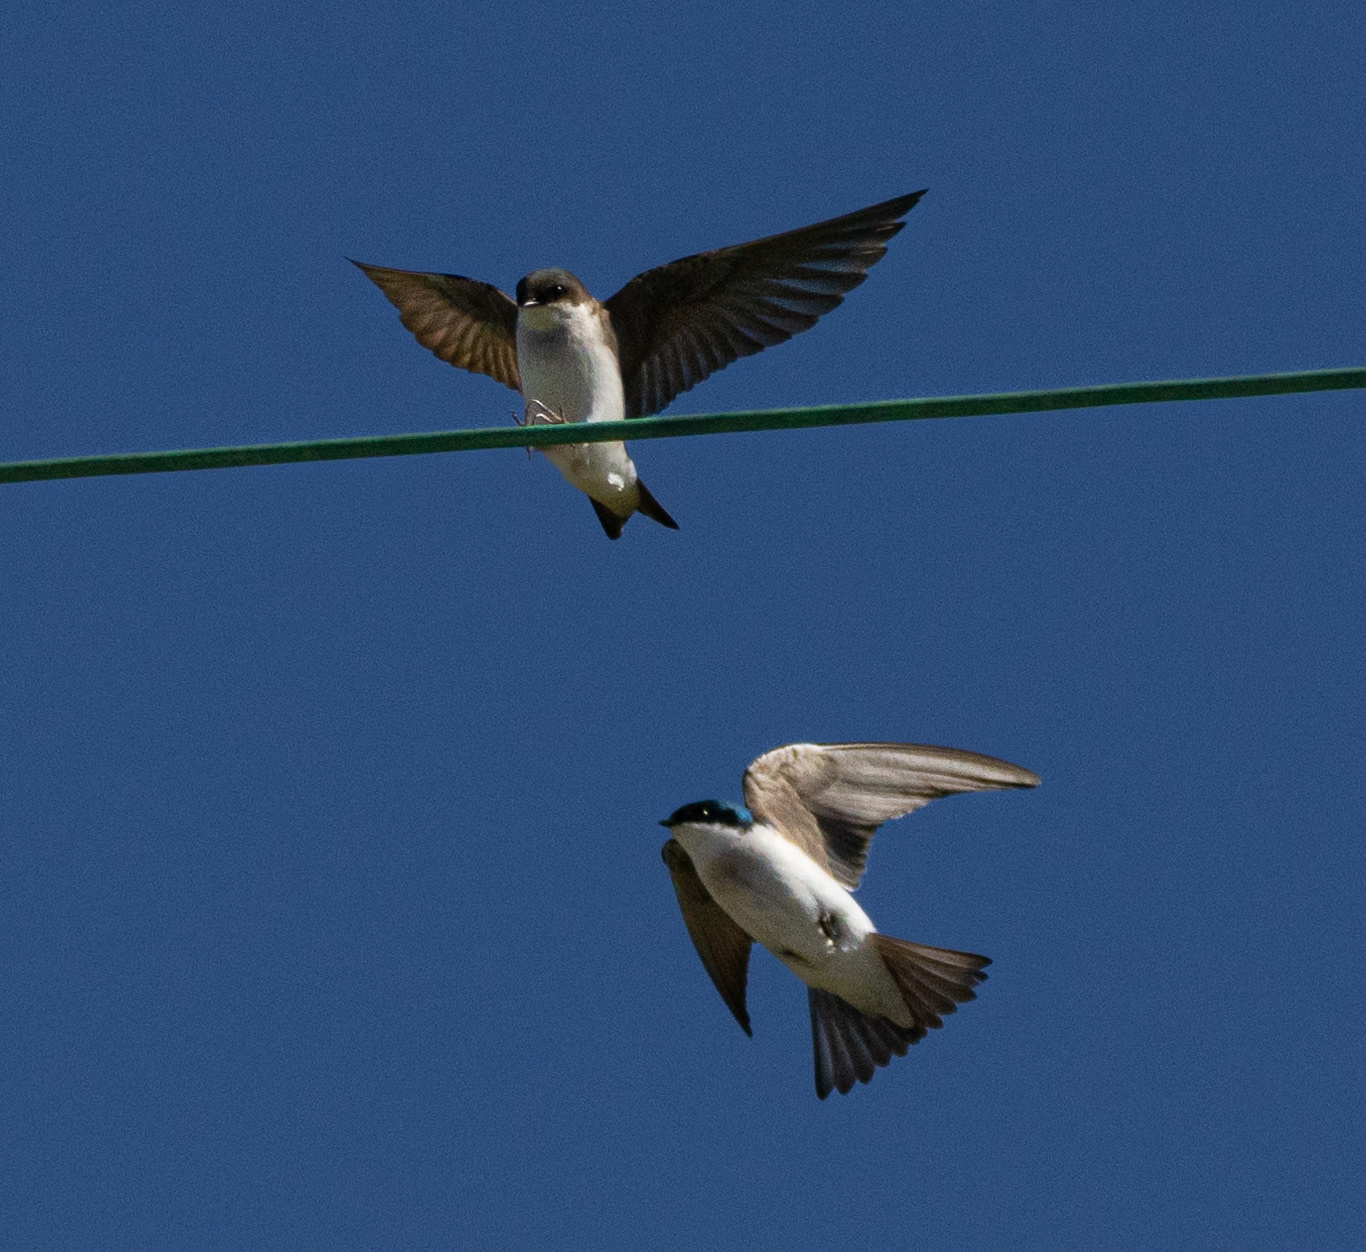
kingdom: Animalia
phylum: Chordata
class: Aves
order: Passeriformes
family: Hirundinidae
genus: Tachycineta
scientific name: Tachycineta bicolor
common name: Tree swallow
